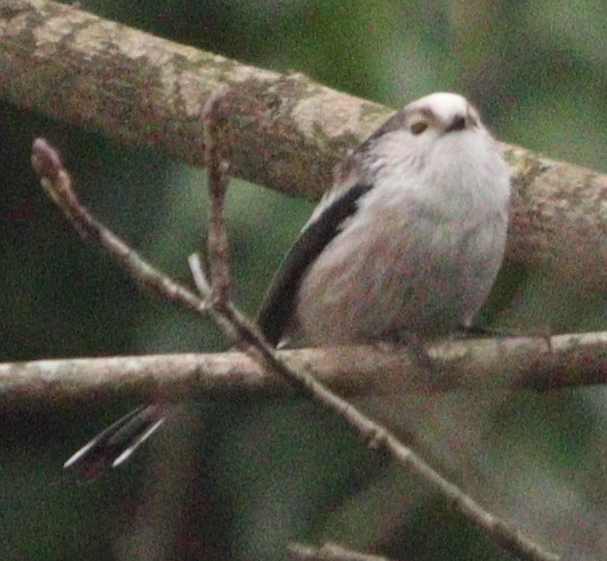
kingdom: Animalia
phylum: Chordata
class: Aves
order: Passeriformes
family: Aegithalidae
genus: Aegithalos
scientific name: Aegithalos caudatus
